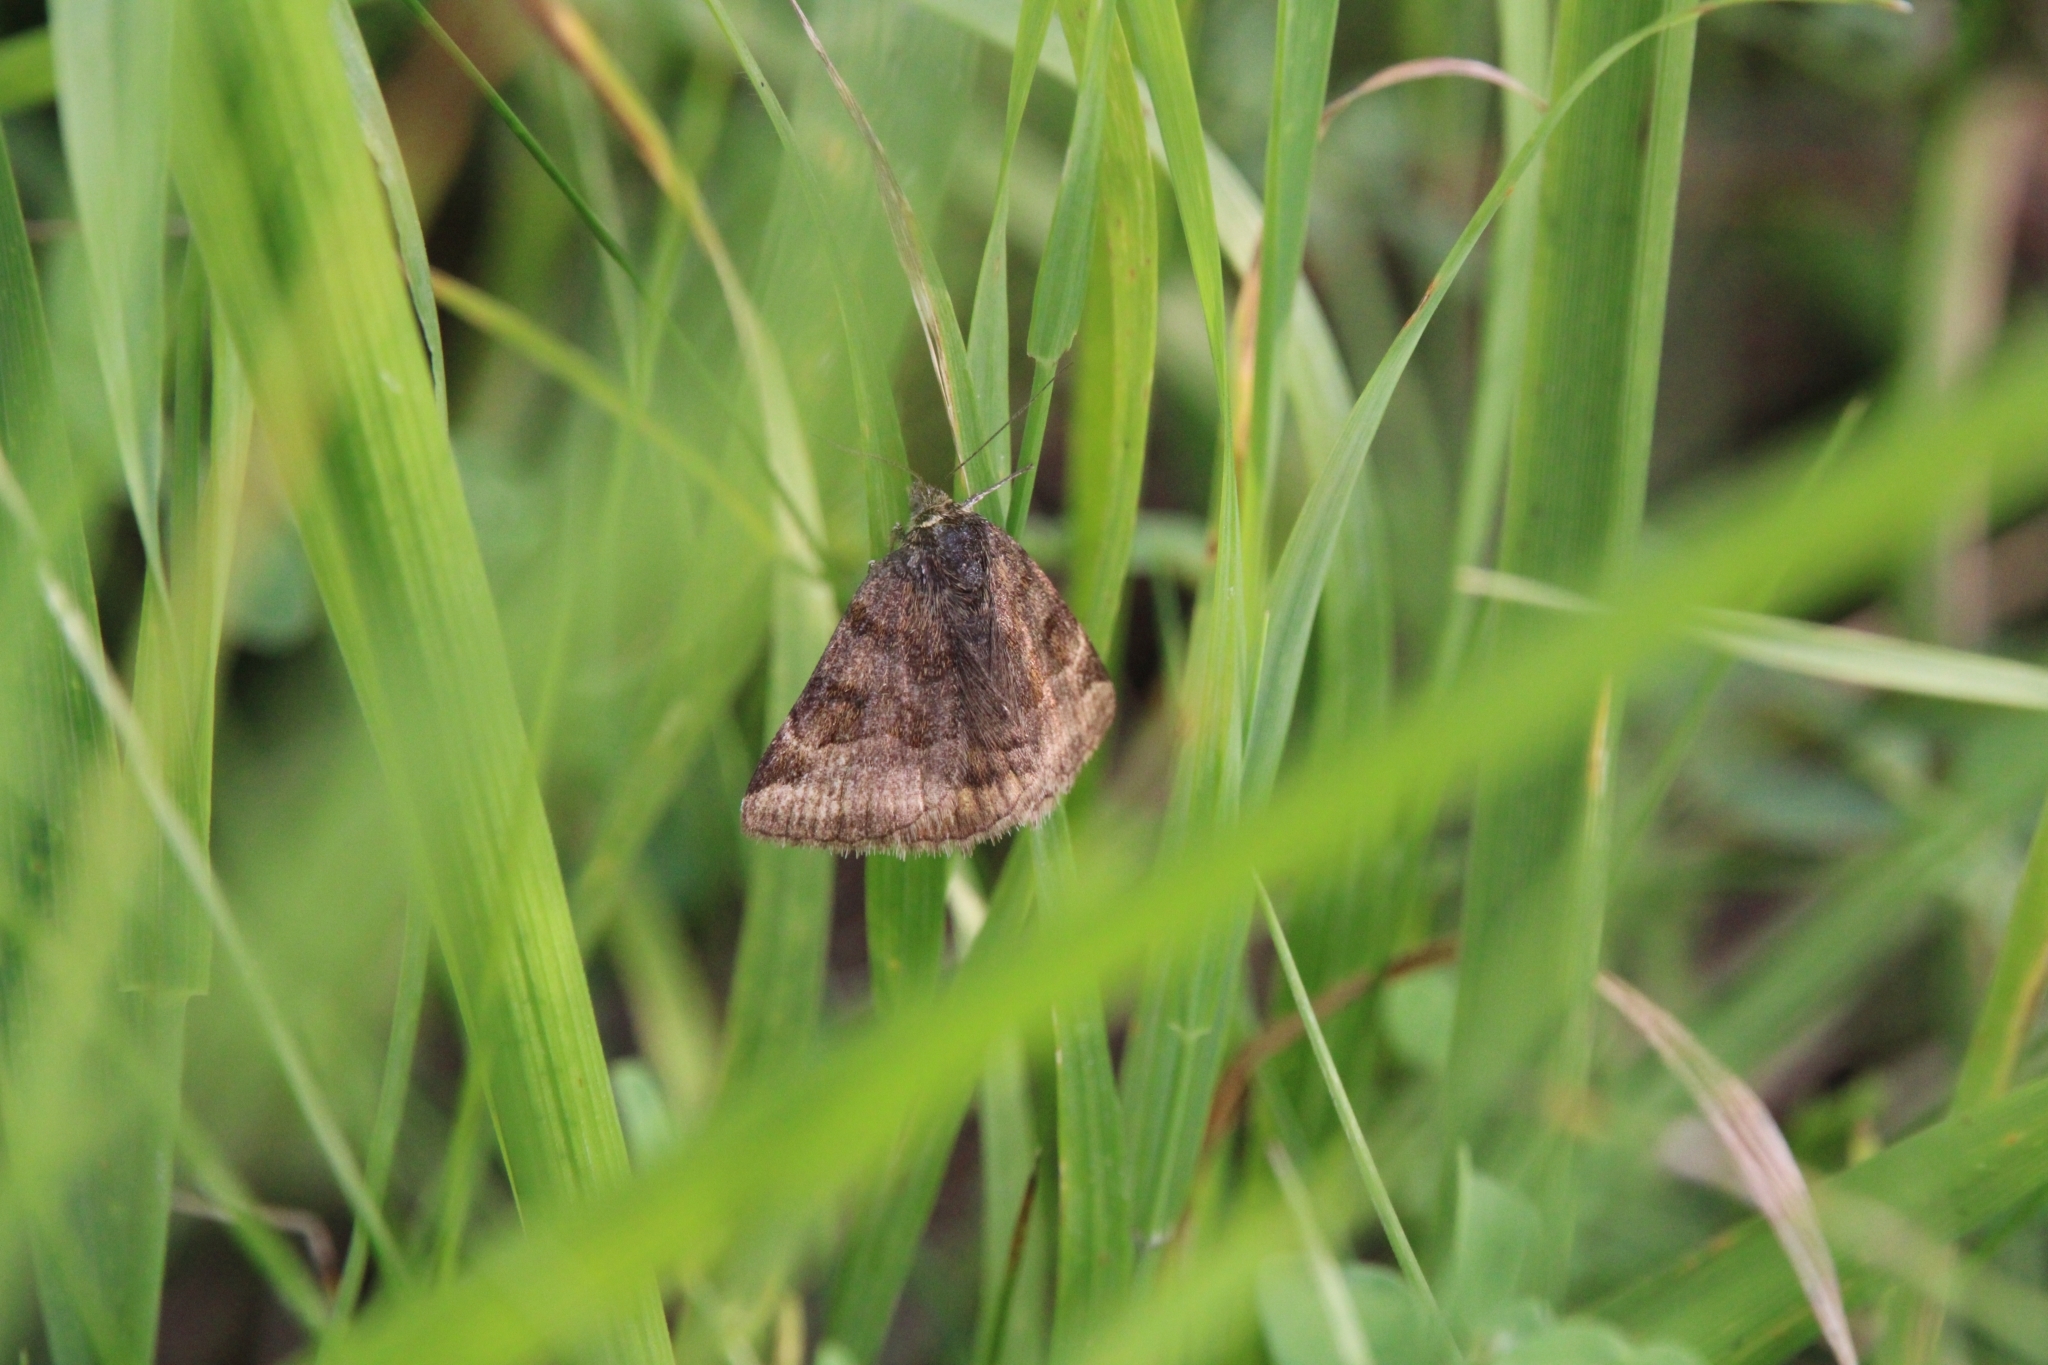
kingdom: Animalia
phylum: Arthropoda
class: Insecta
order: Lepidoptera
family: Erebidae
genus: Euclidia
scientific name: Euclidia glyphica
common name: Burnet companion
